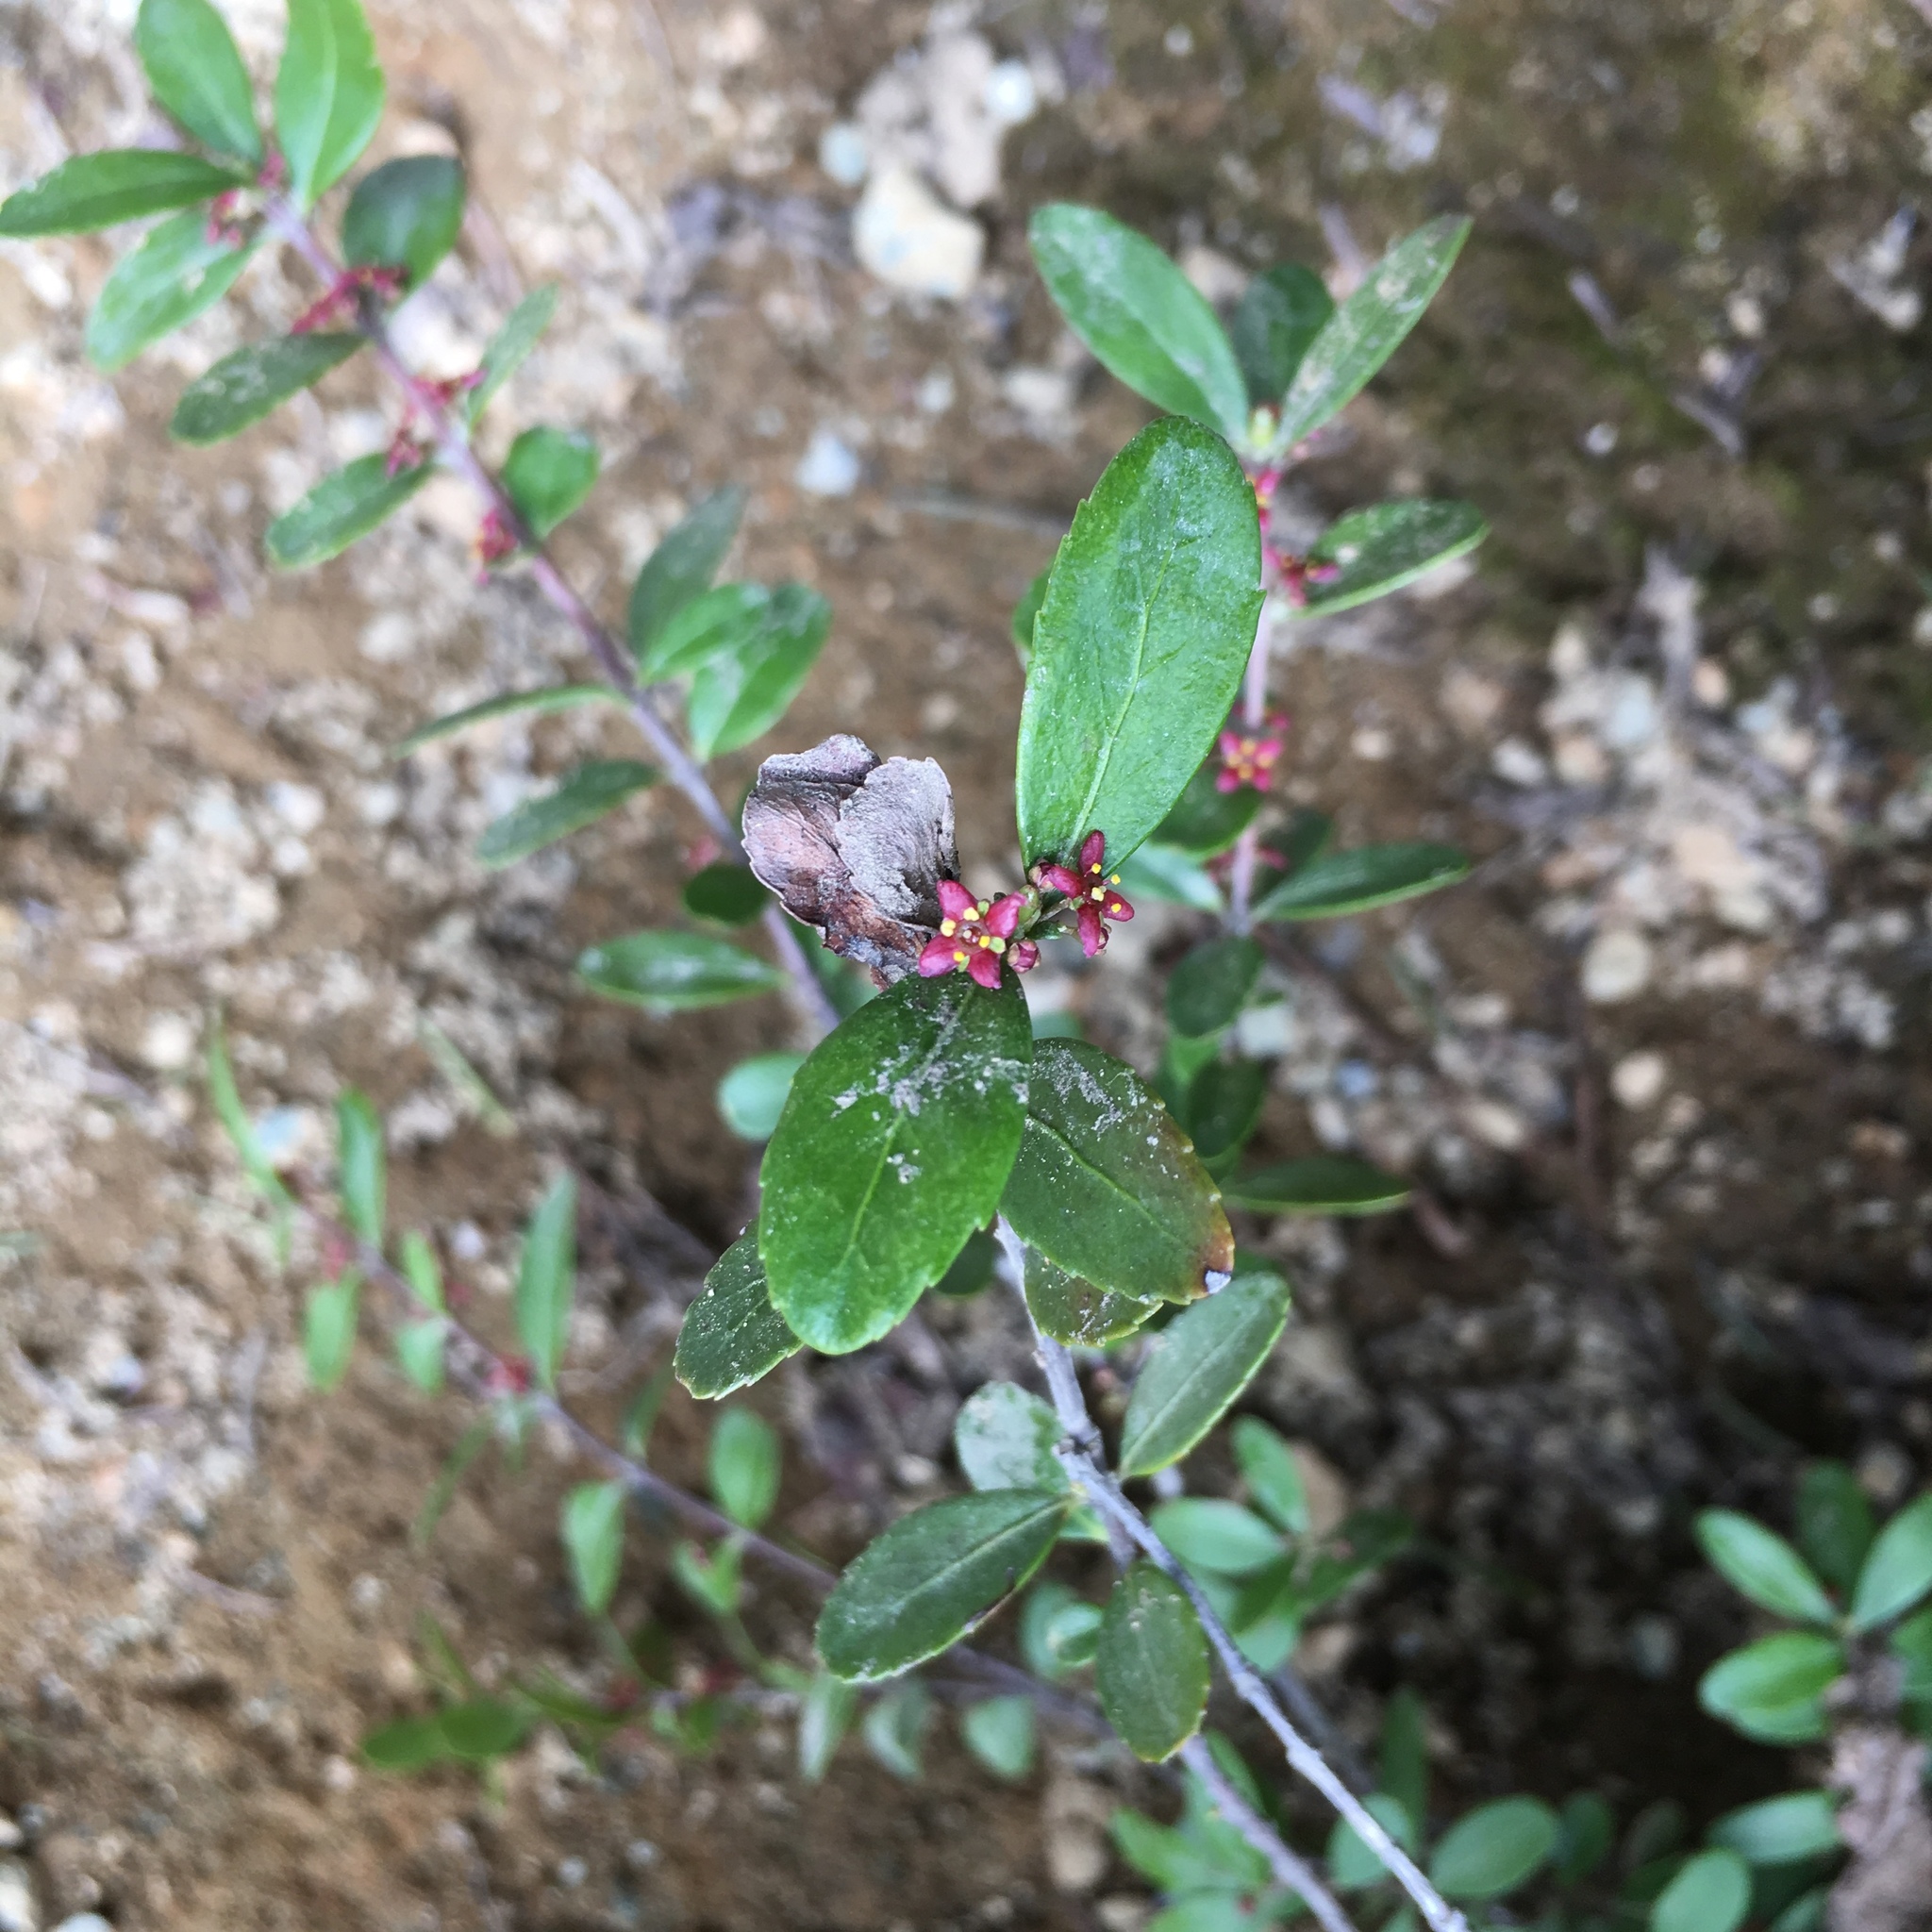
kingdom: Plantae
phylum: Tracheophyta
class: Magnoliopsida
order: Celastrales
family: Celastraceae
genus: Paxistima
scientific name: Paxistima myrsinites
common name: Mountain-lover
